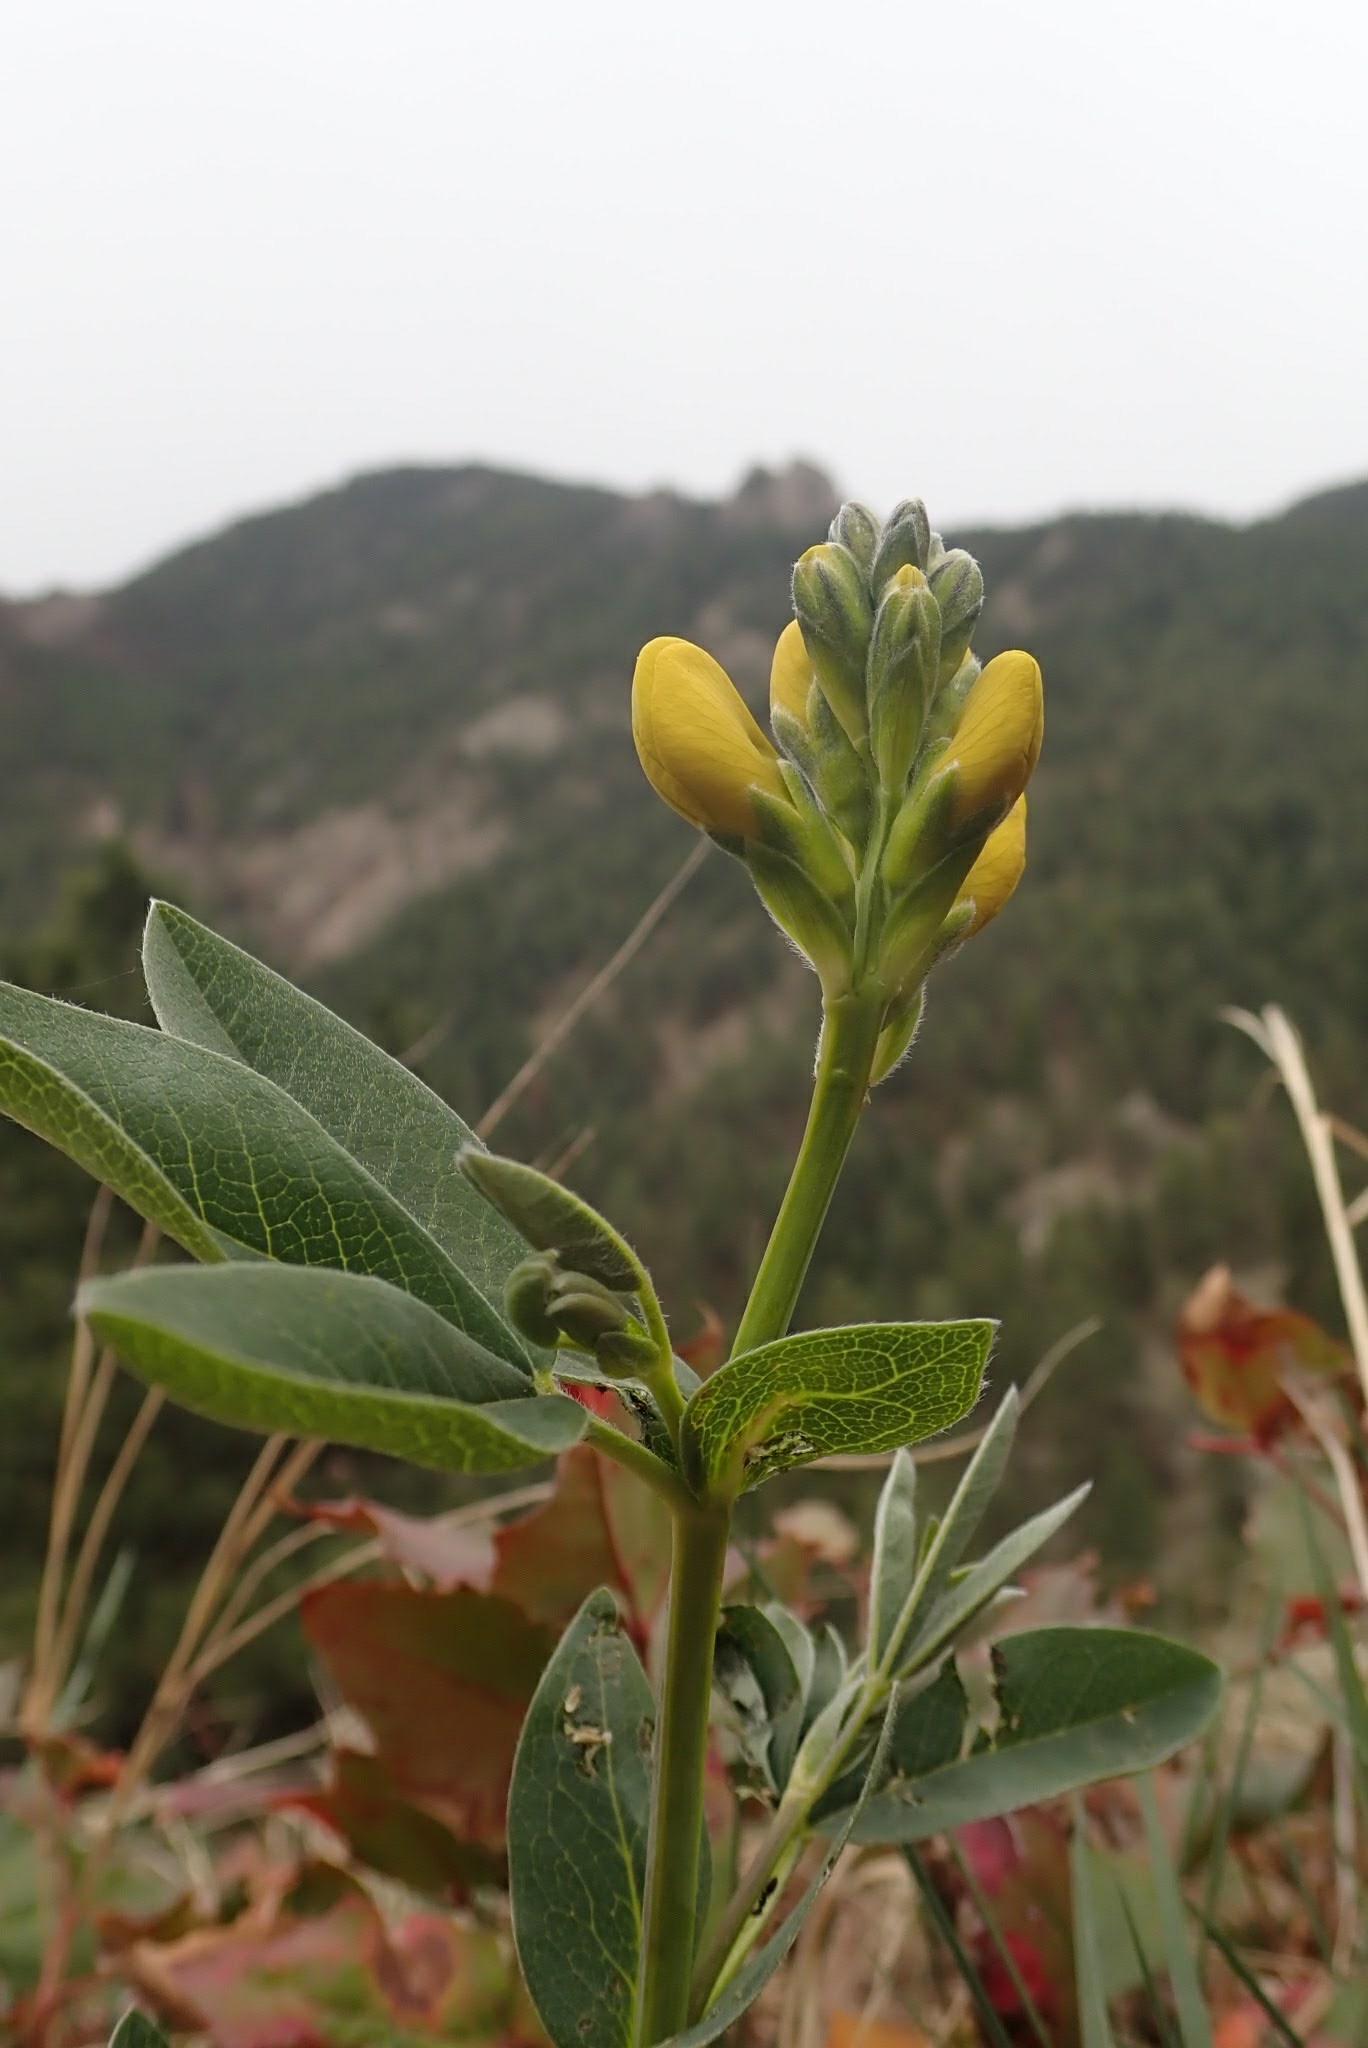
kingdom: Plantae
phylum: Tracheophyta
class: Magnoliopsida
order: Fabales
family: Fabaceae
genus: Thermopsis
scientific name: Thermopsis rhombifolia
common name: Circle-pod-pea
